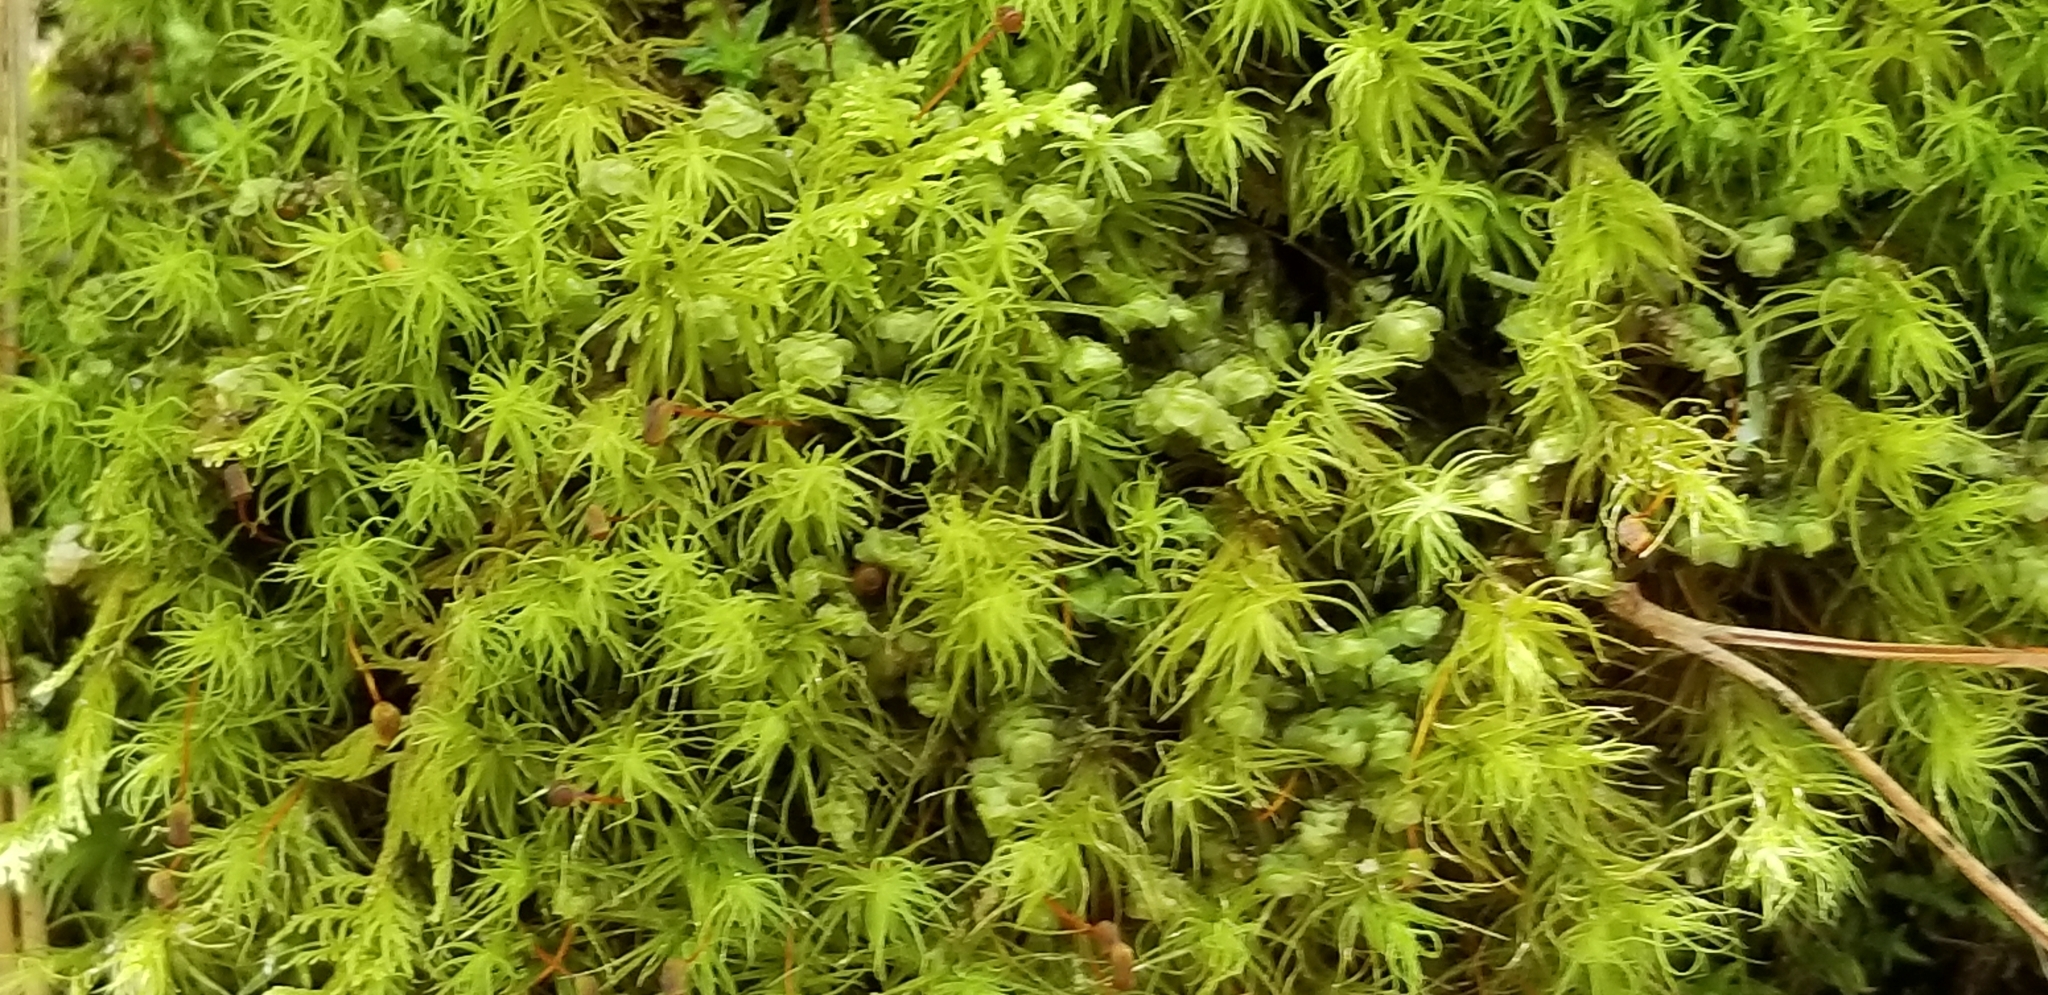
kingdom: Plantae
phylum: Bryophyta
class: Bryopsida
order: Bartramiales
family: Bartramiaceae
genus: Bartramia
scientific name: Bartramia ithyphylla
